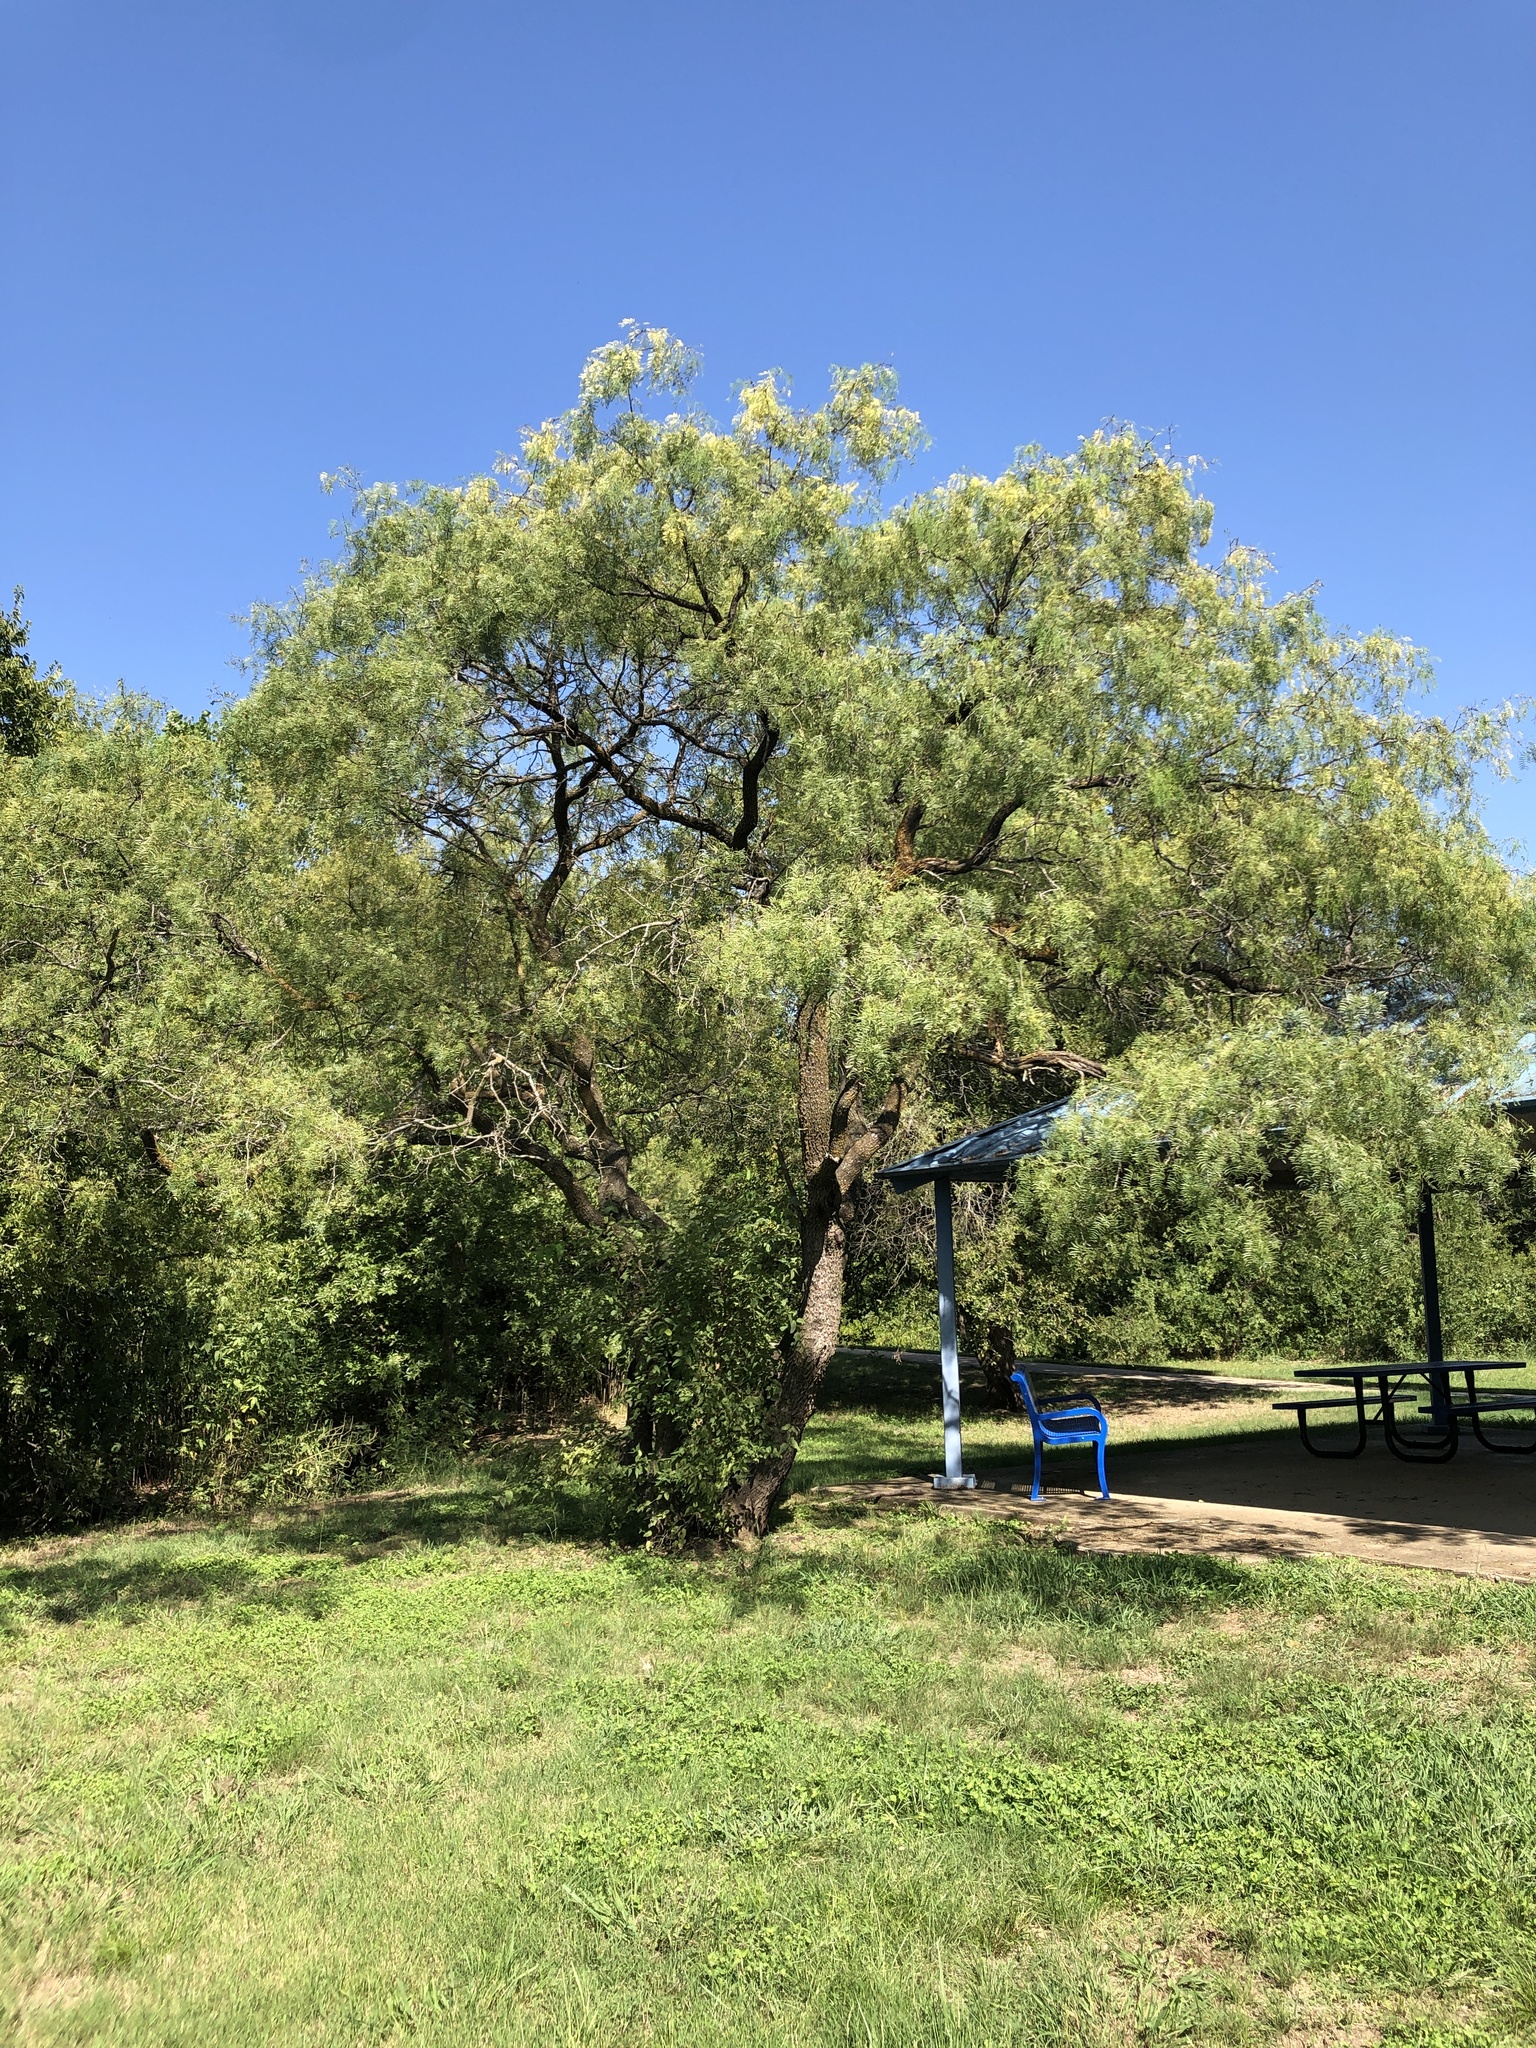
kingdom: Plantae
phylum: Tracheophyta
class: Magnoliopsida
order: Fabales
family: Fabaceae
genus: Prosopis
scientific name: Prosopis glandulosa
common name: Honey mesquite
